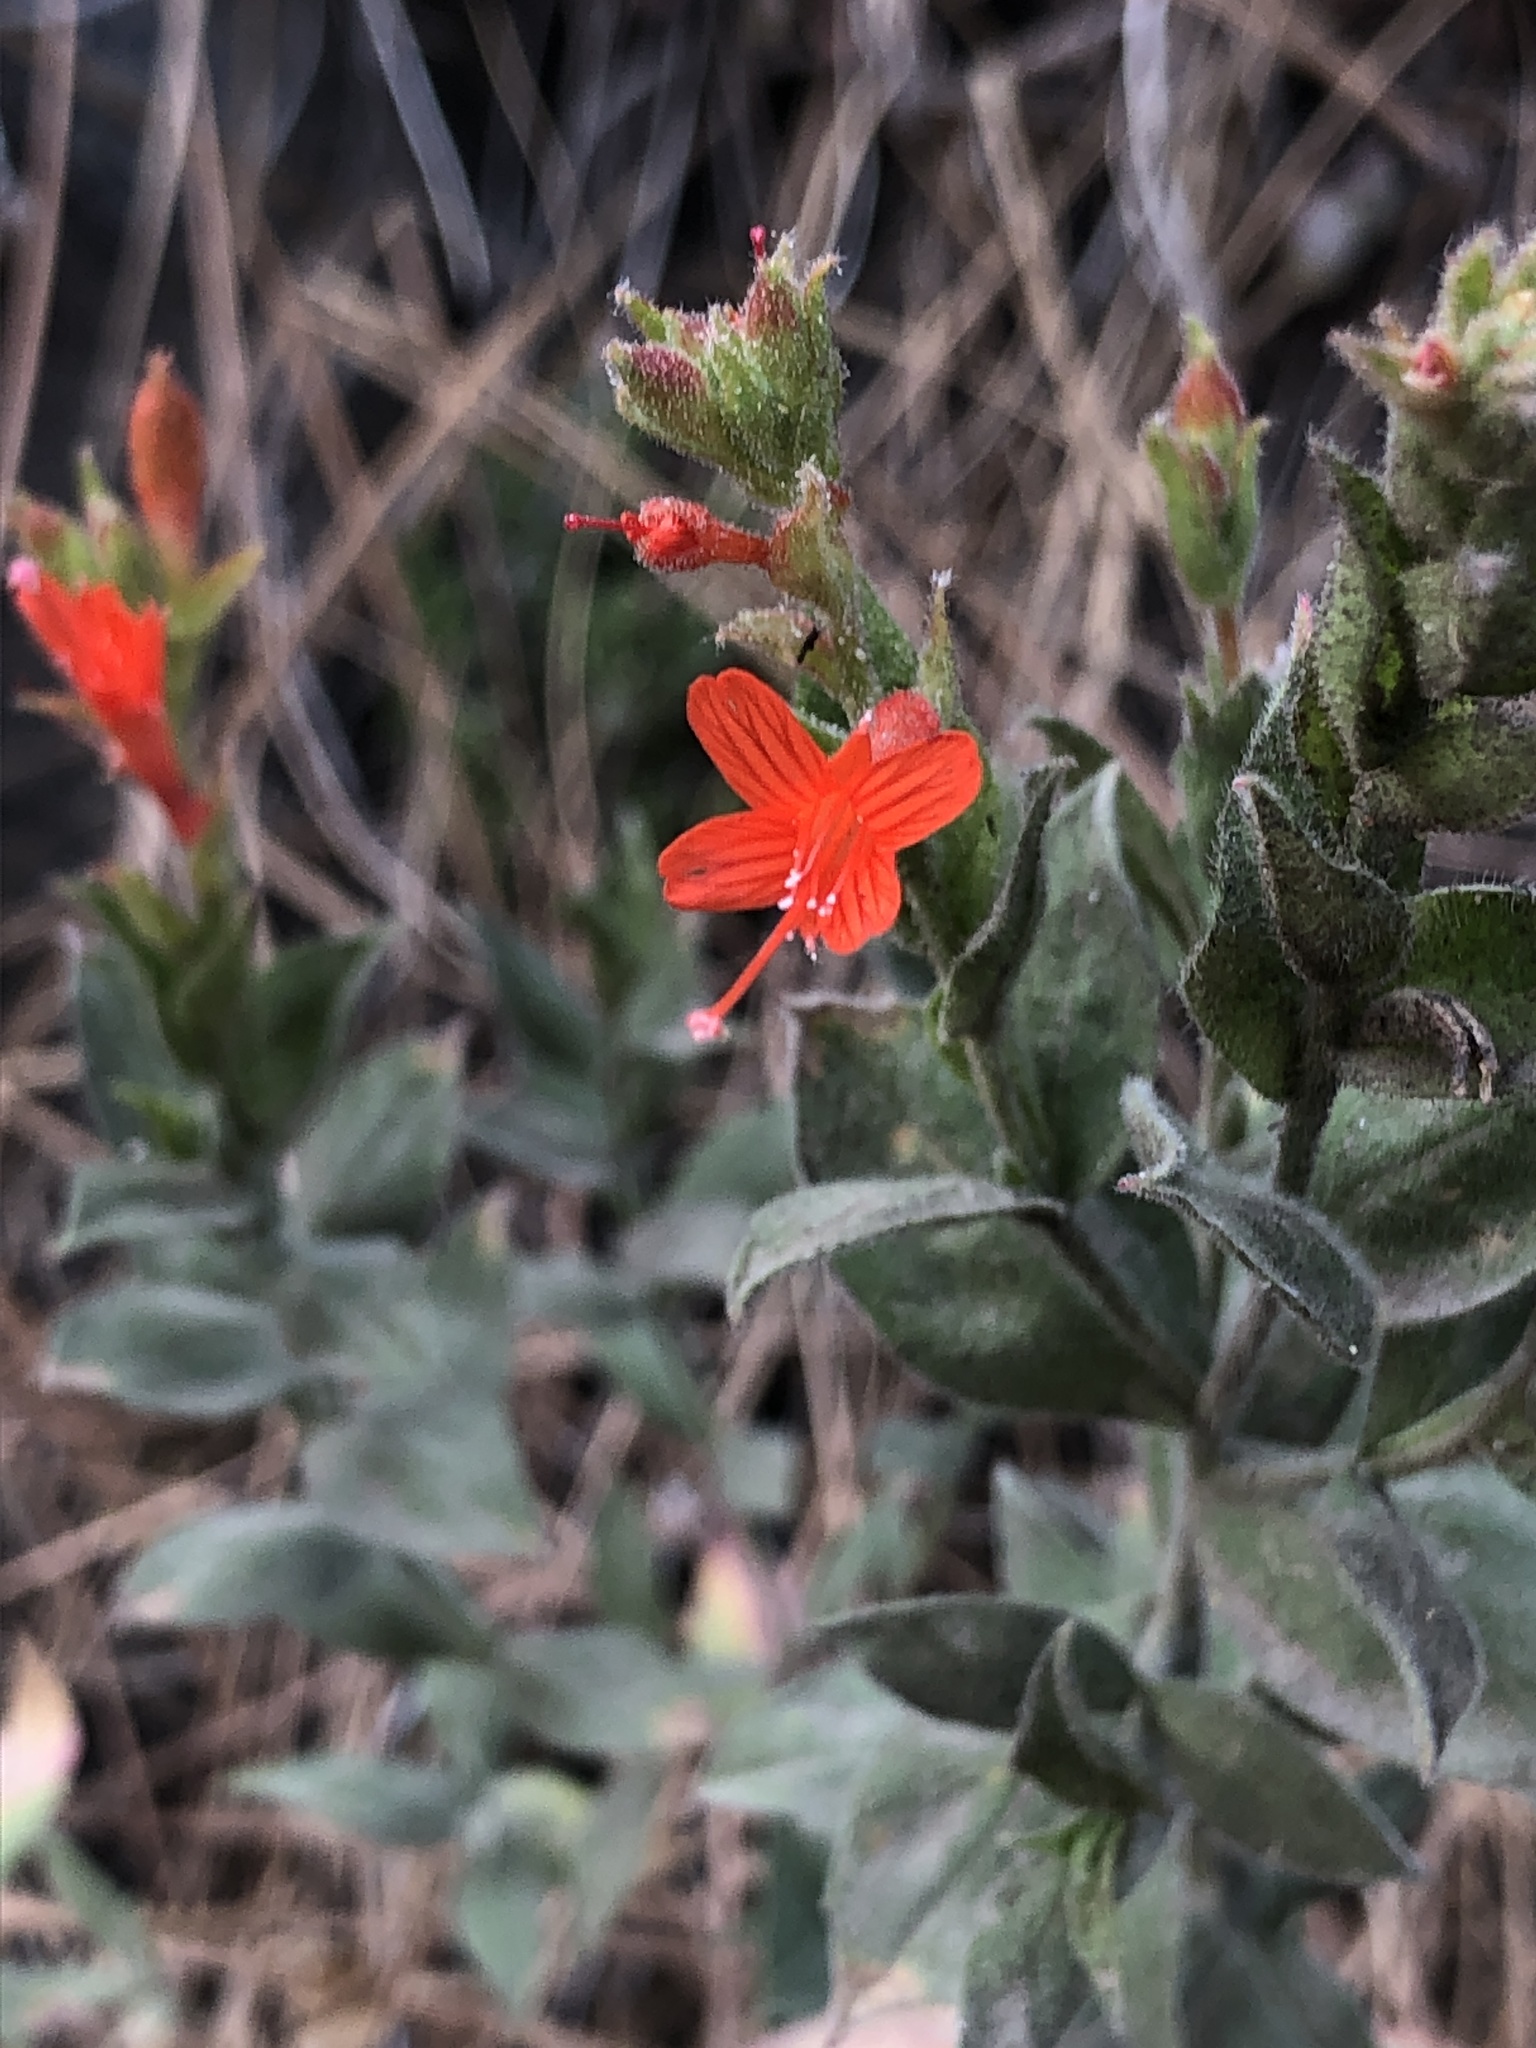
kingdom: Plantae
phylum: Tracheophyta
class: Magnoliopsida
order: Myrtales
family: Onagraceae
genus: Epilobium
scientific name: Epilobium canum
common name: California-fuchsia
